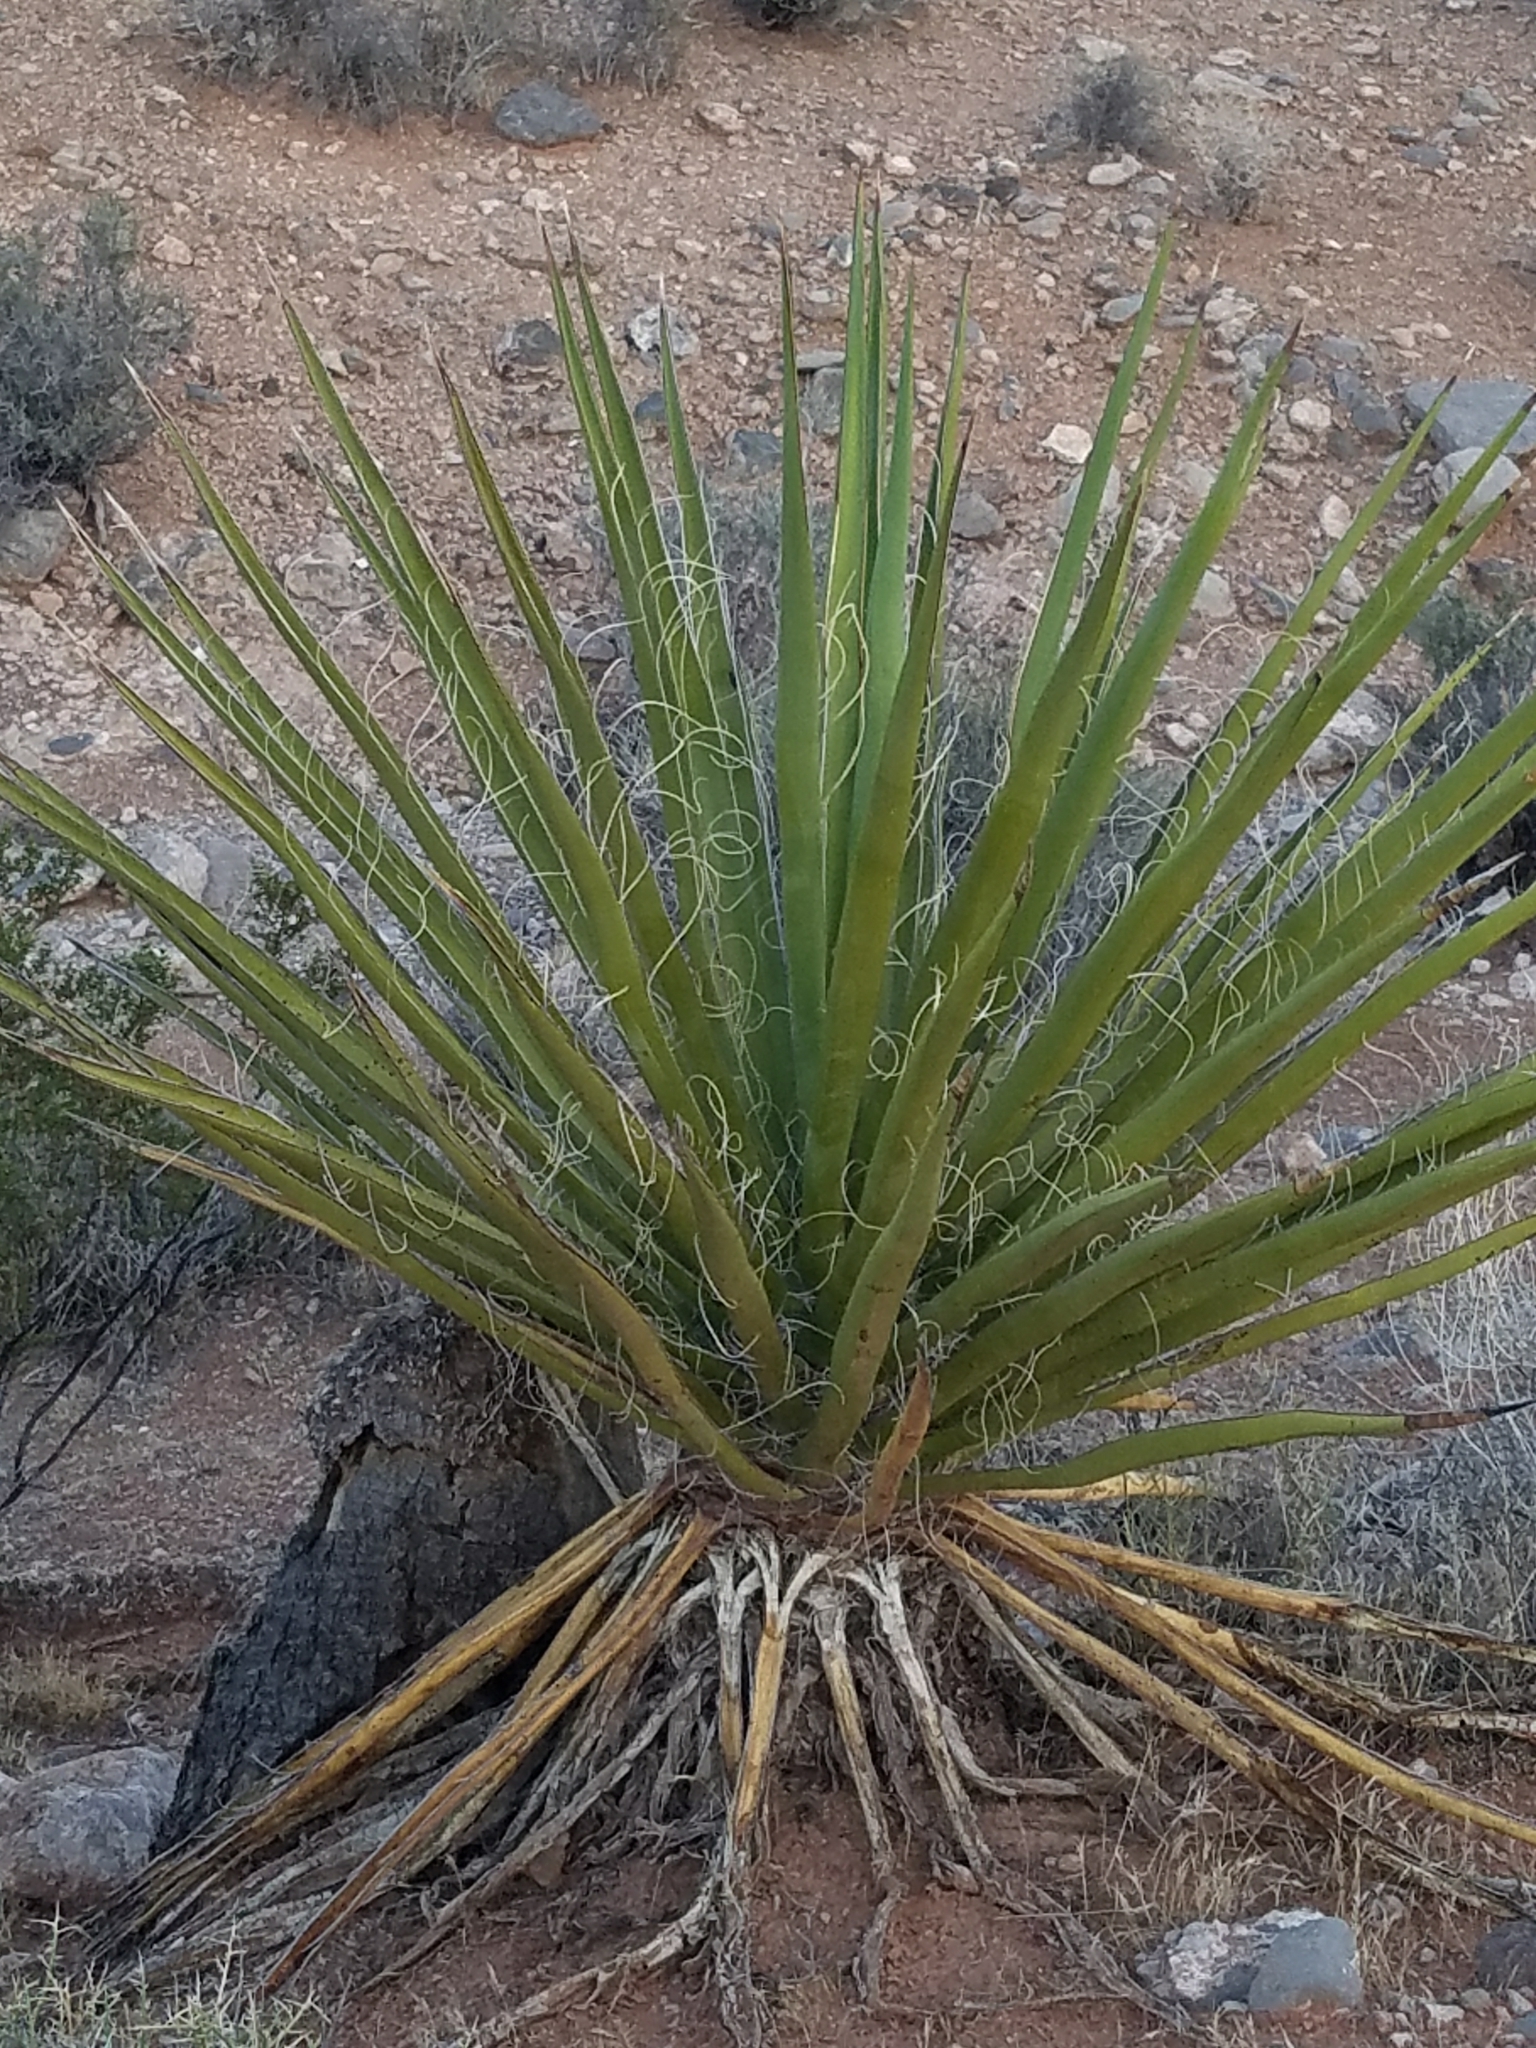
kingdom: Plantae
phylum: Tracheophyta
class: Liliopsida
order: Asparagales
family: Asparagaceae
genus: Yucca
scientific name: Yucca schidigera
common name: Mojave yucca
